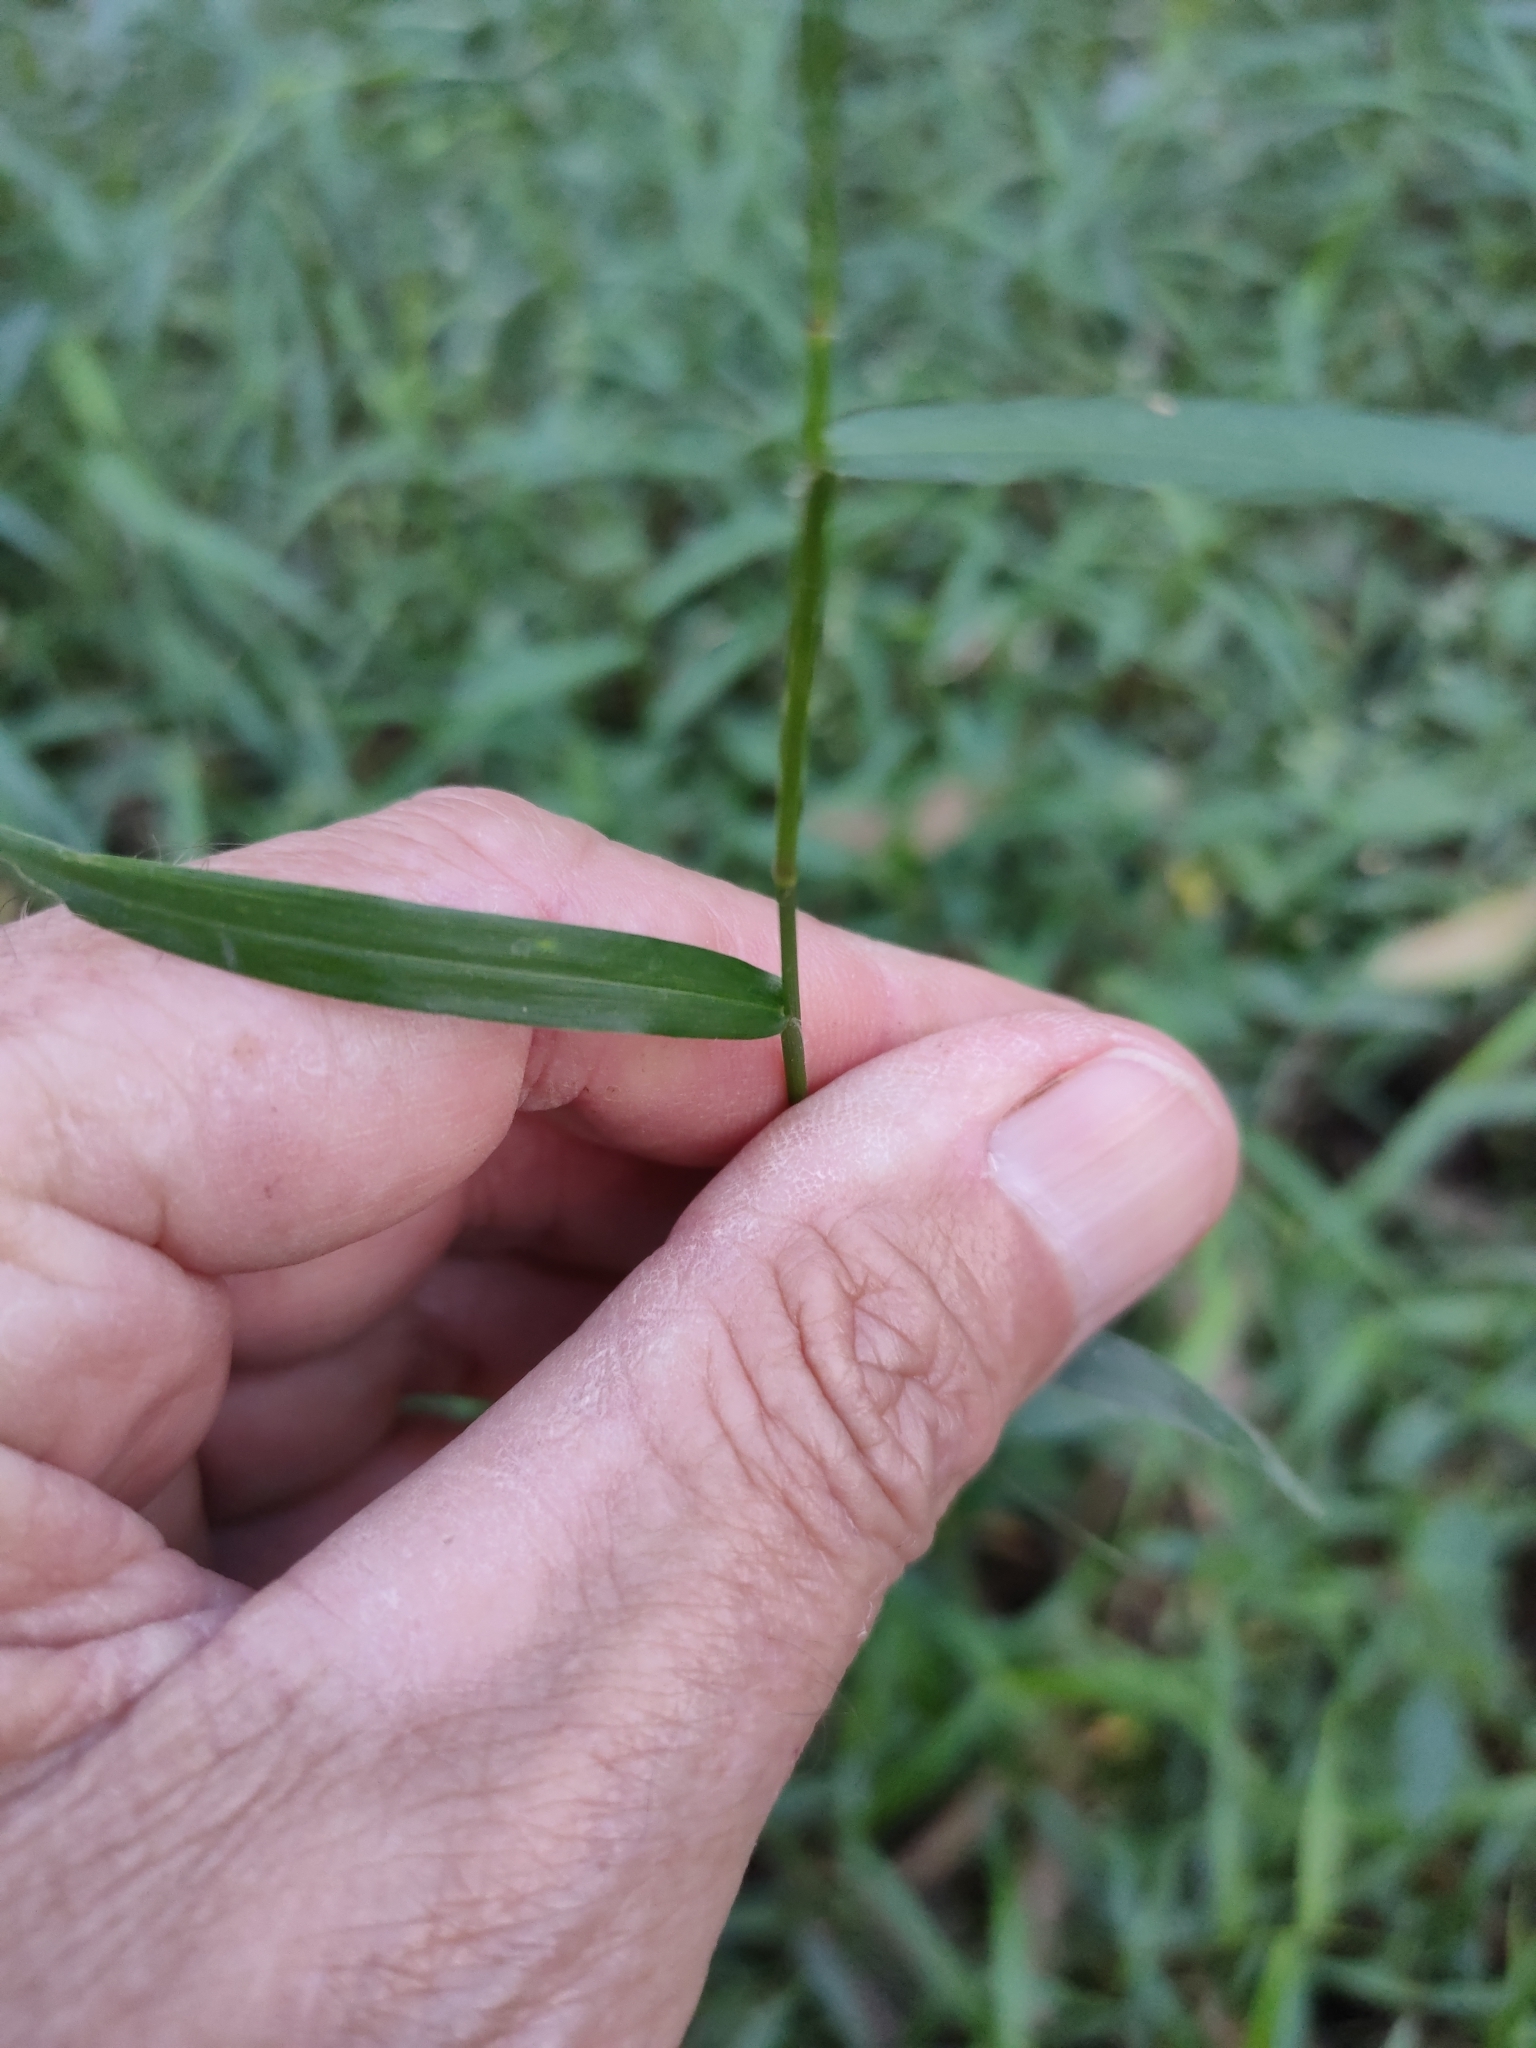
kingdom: Plantae
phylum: Tracheophyta
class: Liliopsida
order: Poales
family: Poaceae
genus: Ottochloa
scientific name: Ottochloa gracillima
